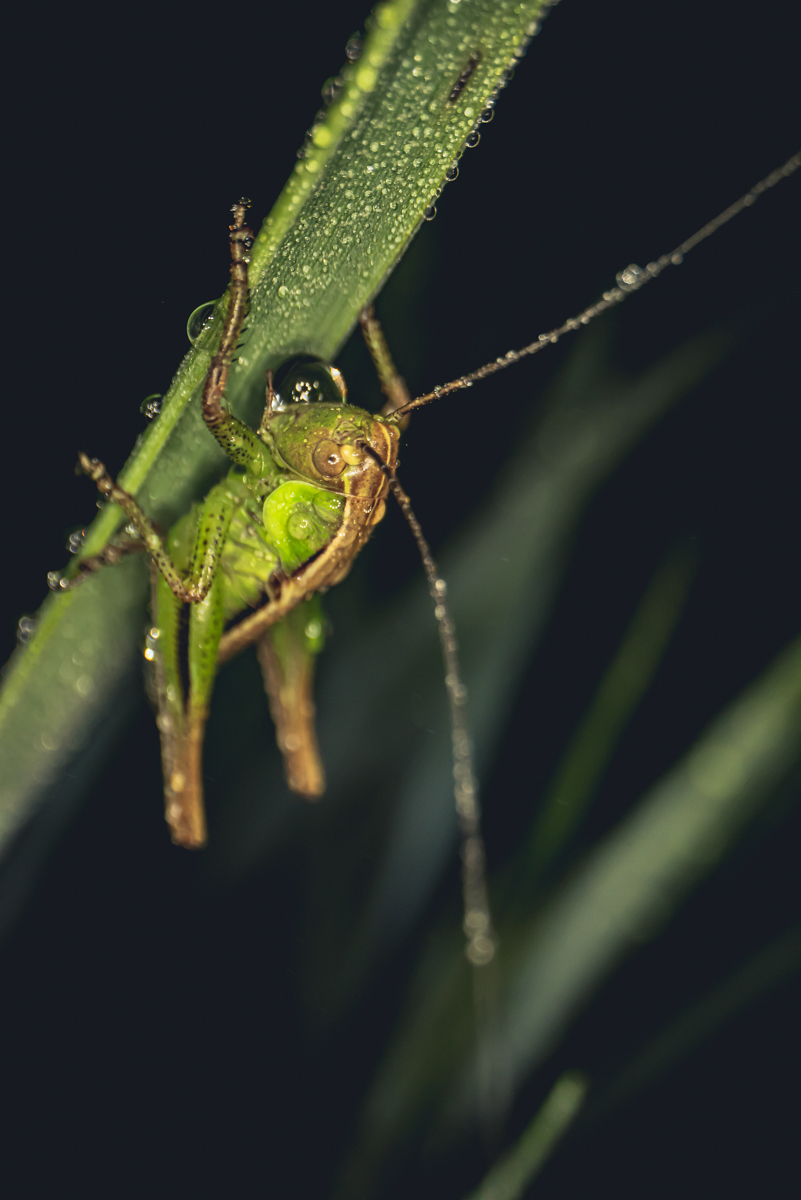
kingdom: Animalia
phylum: Arthropoda
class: Insecta
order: Orthoptera
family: Tettigoniidae
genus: Roeseliana
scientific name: Roeseliana roeselii
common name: Roesel's bush cricket
